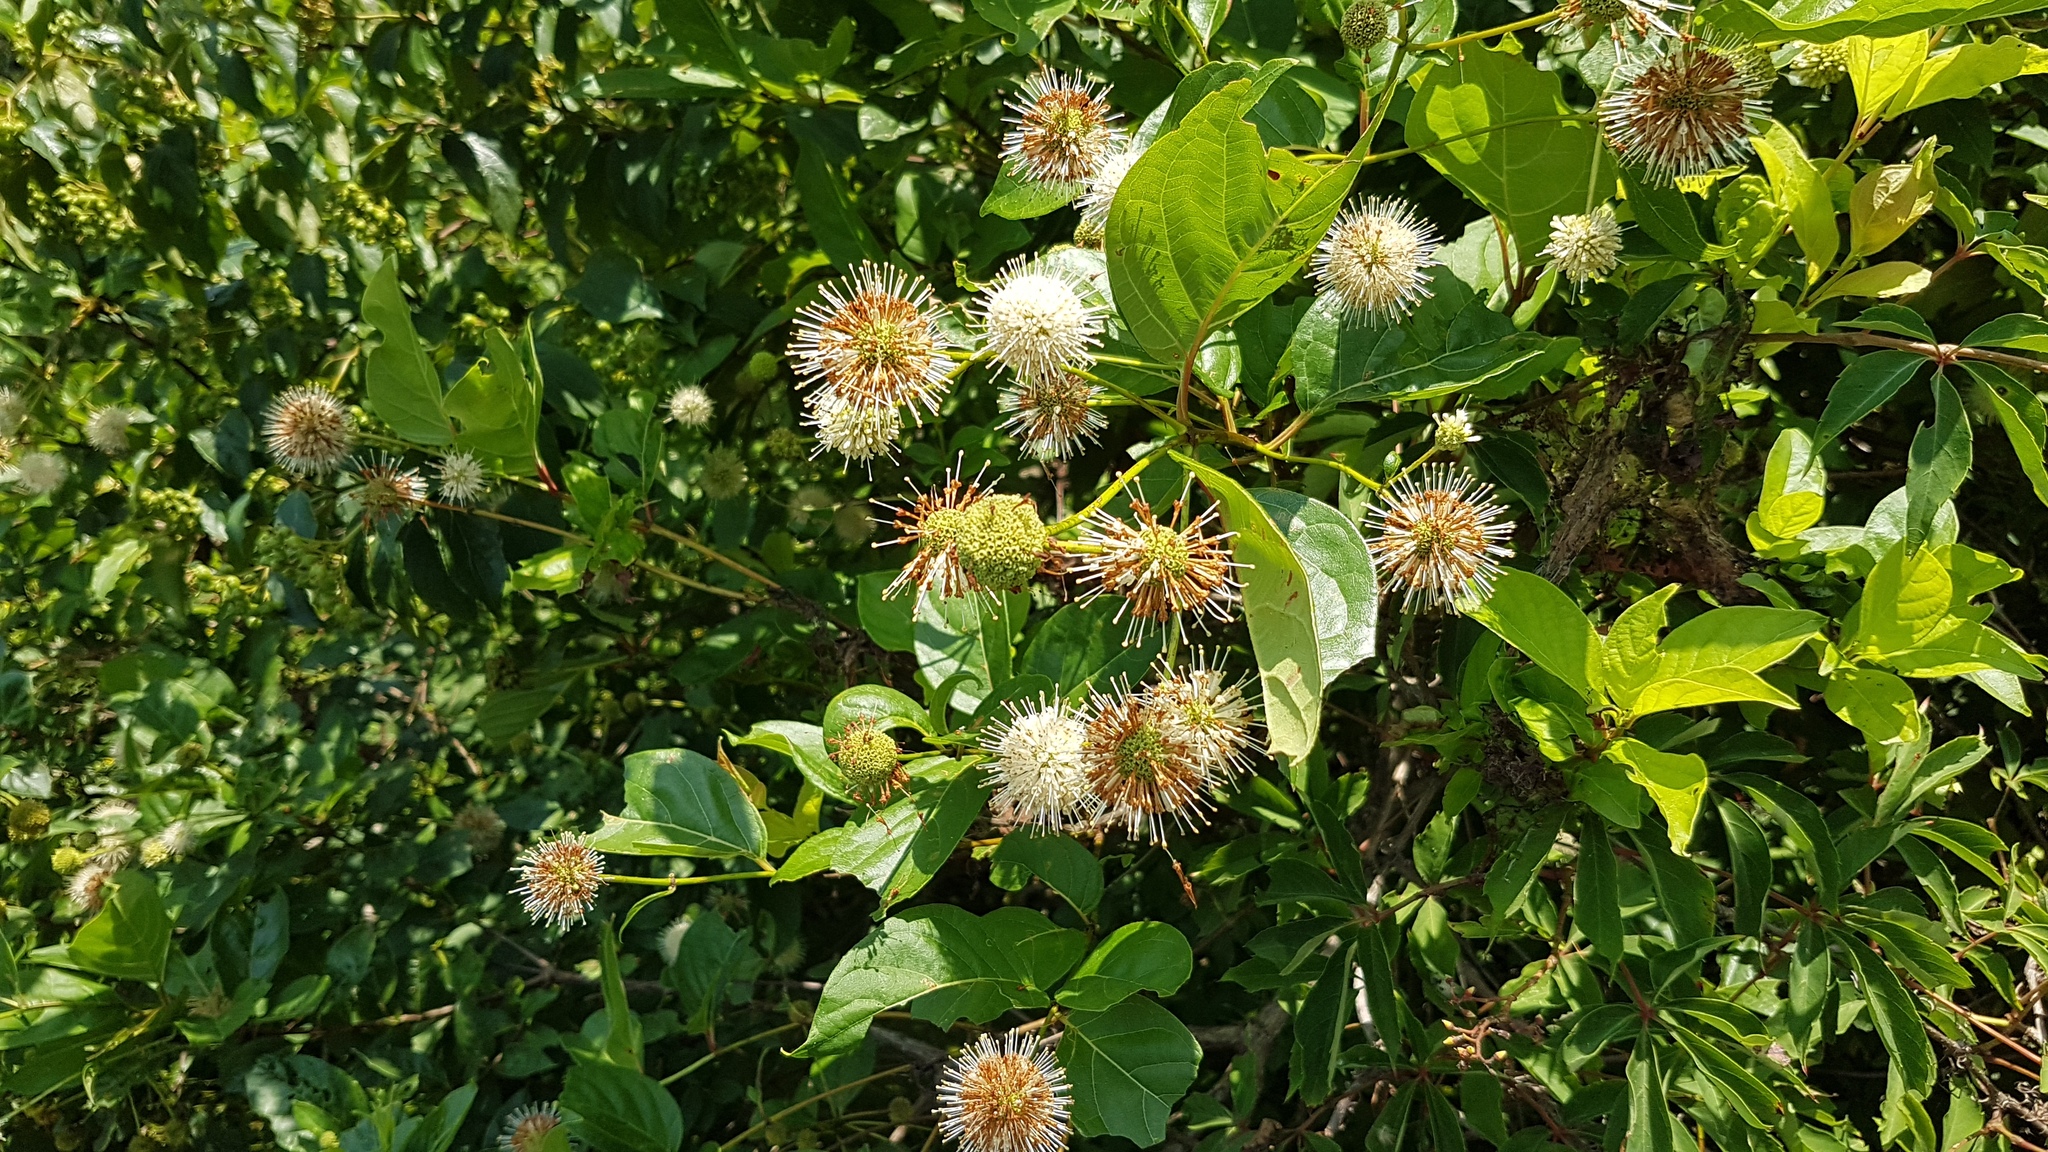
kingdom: Plantae
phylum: Tracheophyta
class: Magnoliopsida
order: Gentianales
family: Rubiaceae
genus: Cephalanthus
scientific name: Cephalanthus occidentalis
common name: Button-willow
